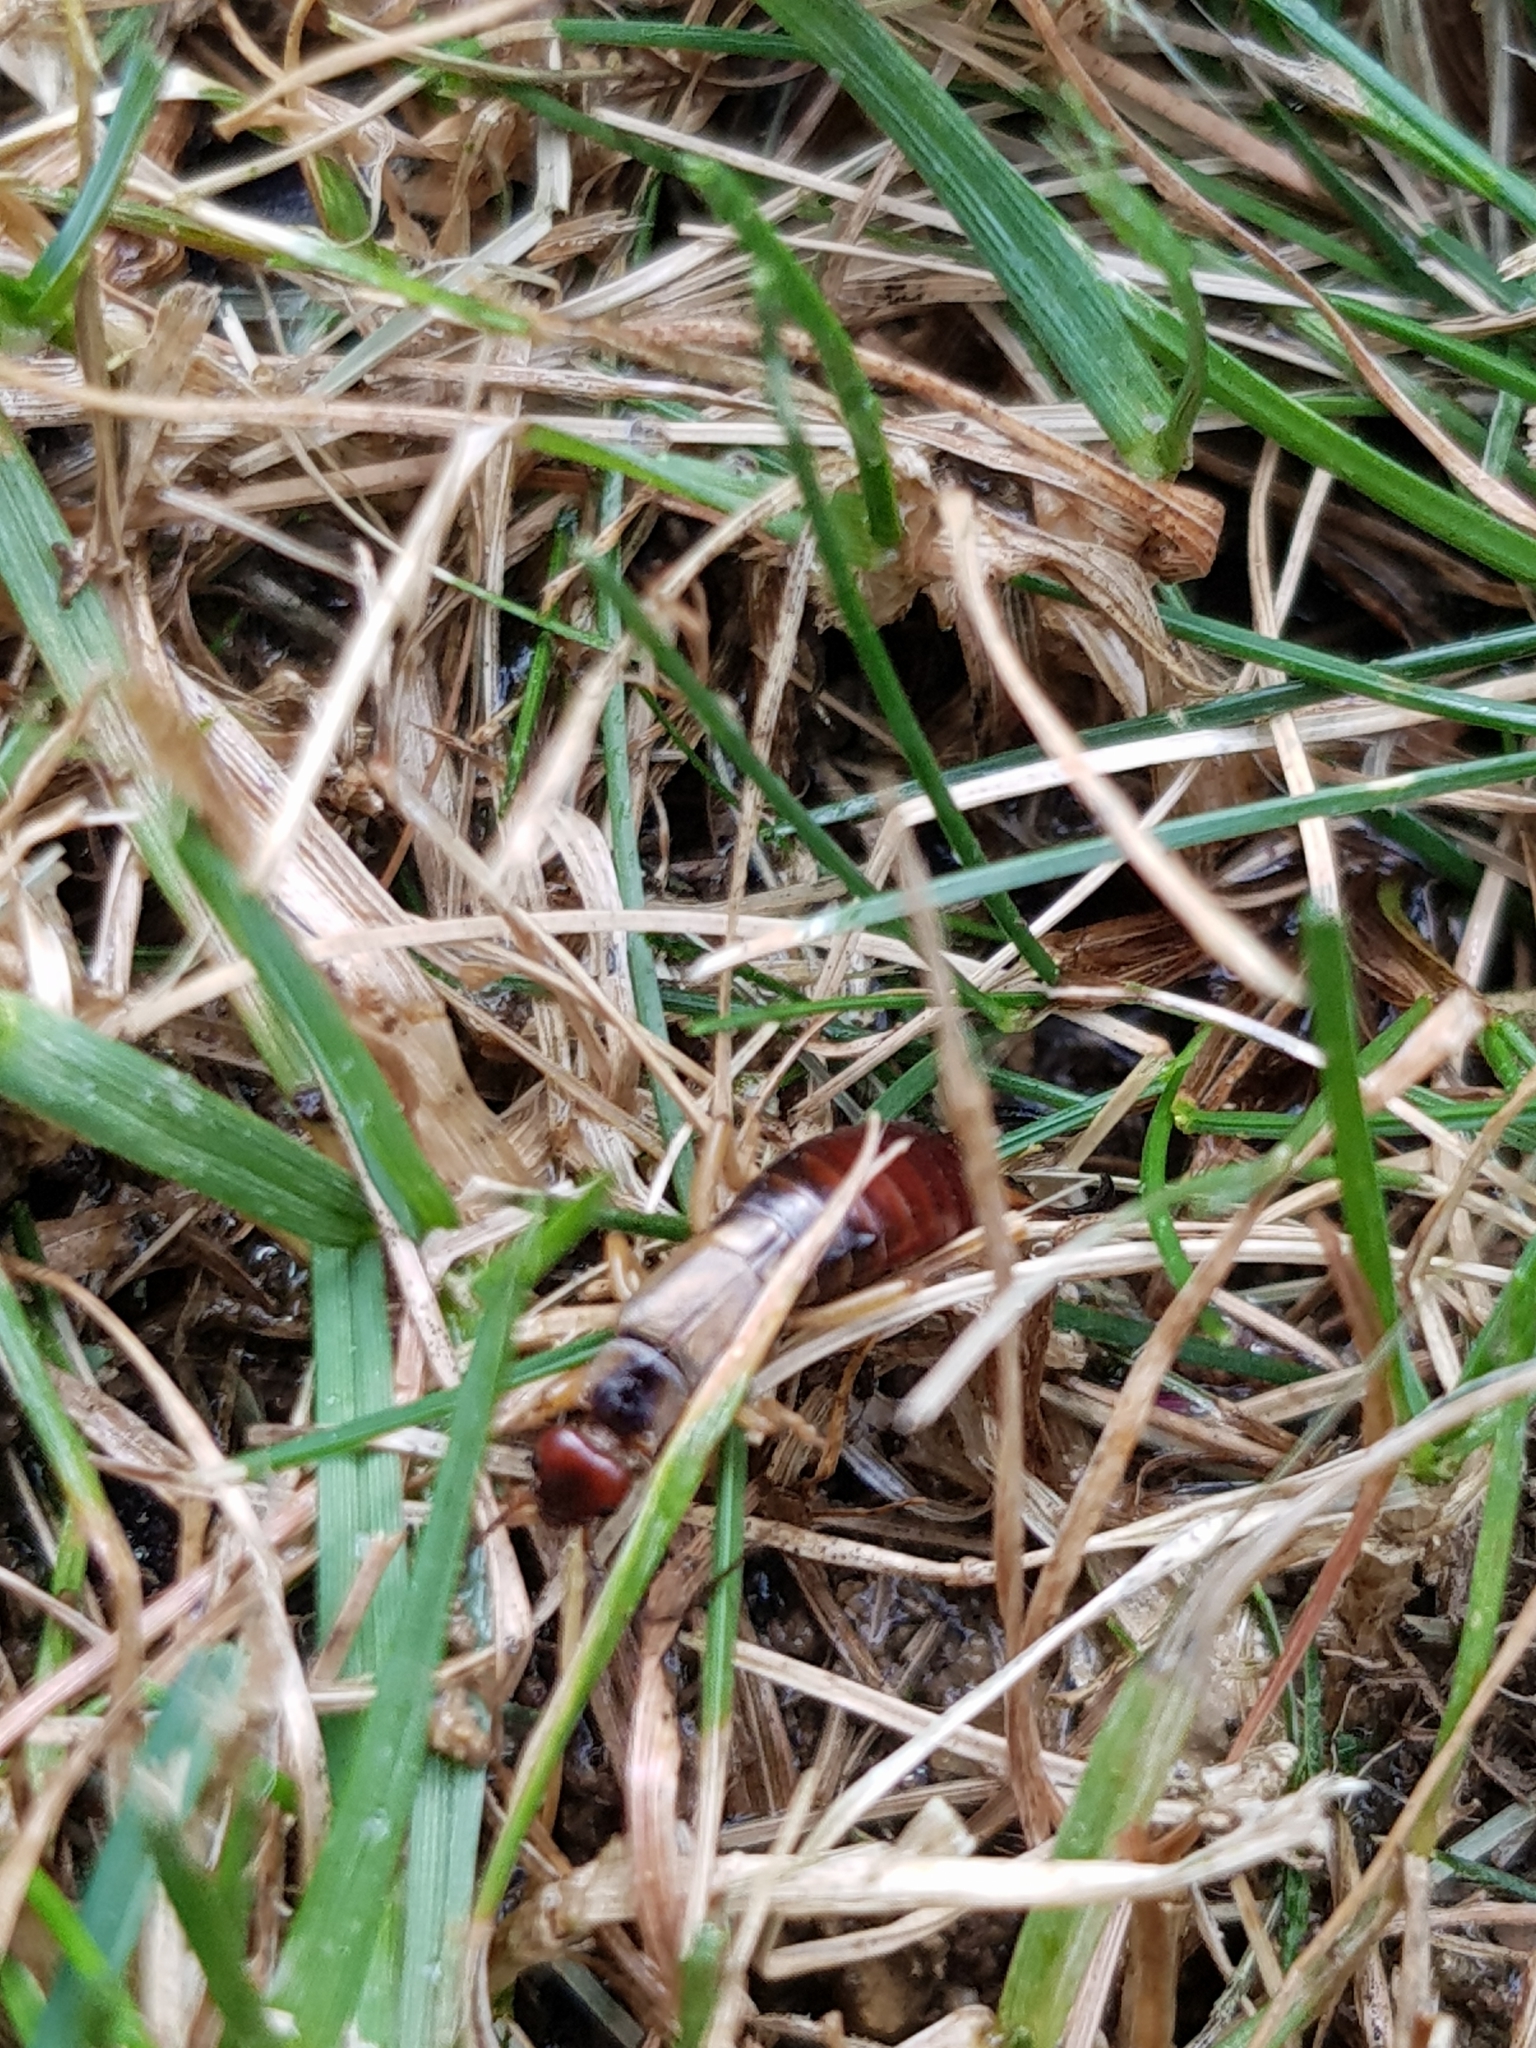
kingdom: Animalia
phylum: Arthropoda
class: Insecta
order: Dermaptera
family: Forficulidae
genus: Forficula
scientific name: Forficula dentata
